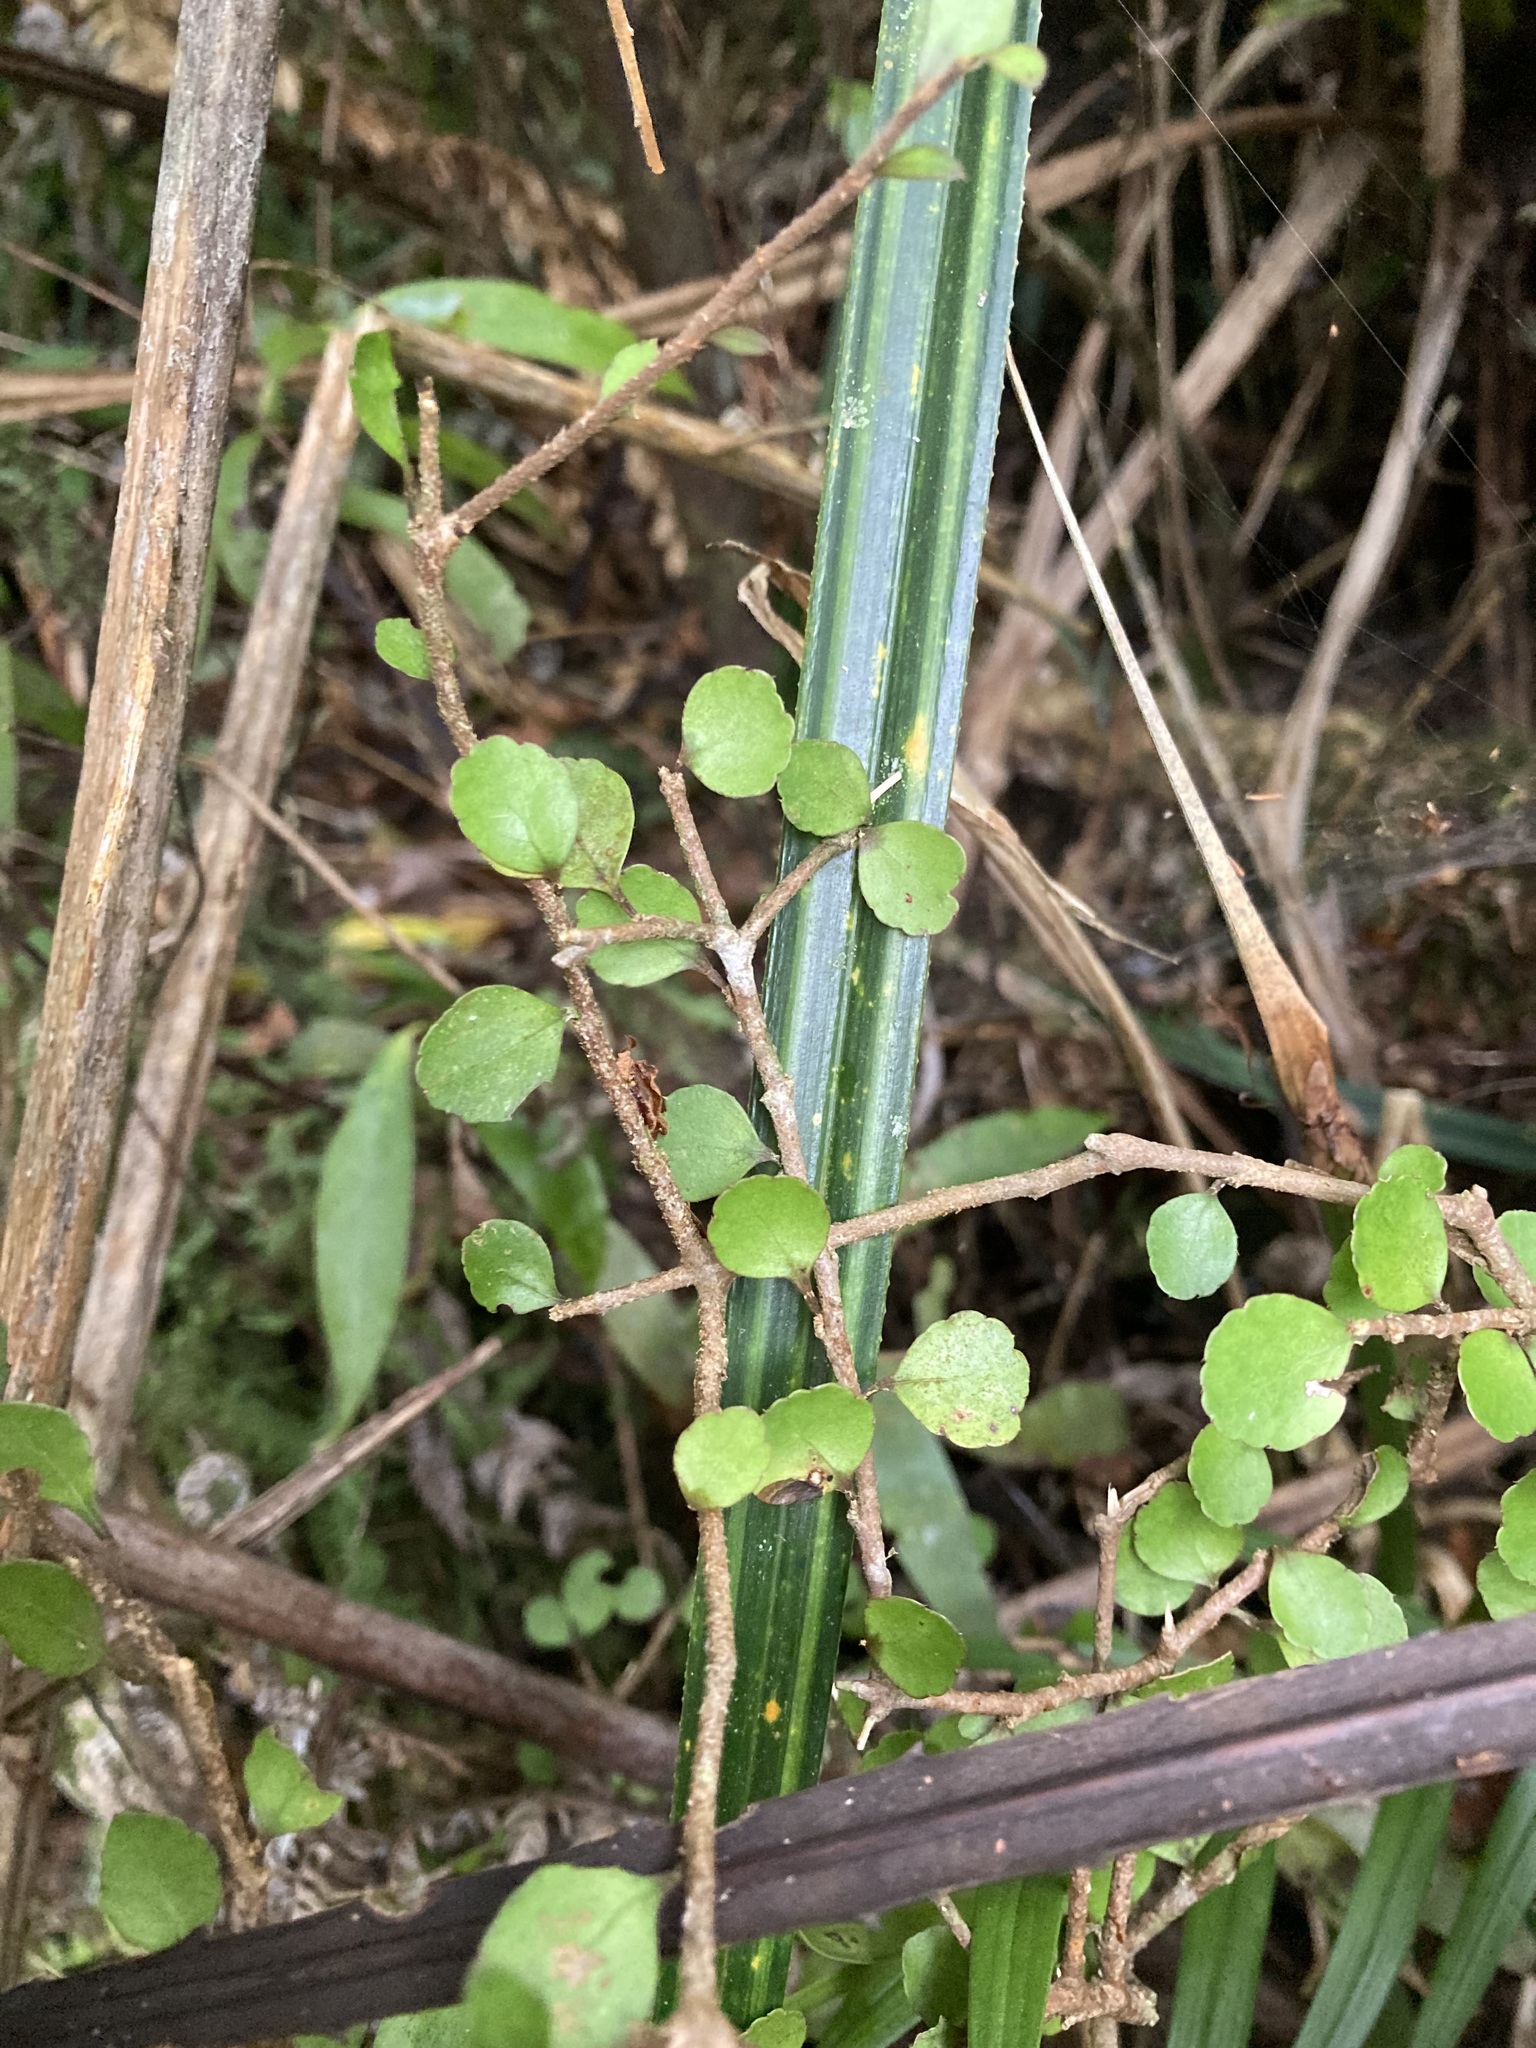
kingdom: Plantae
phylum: Tracheophyta
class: Magnoliopsida
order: Apiales
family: Araliaceae
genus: Raukaua
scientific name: Raukaua anomalus
